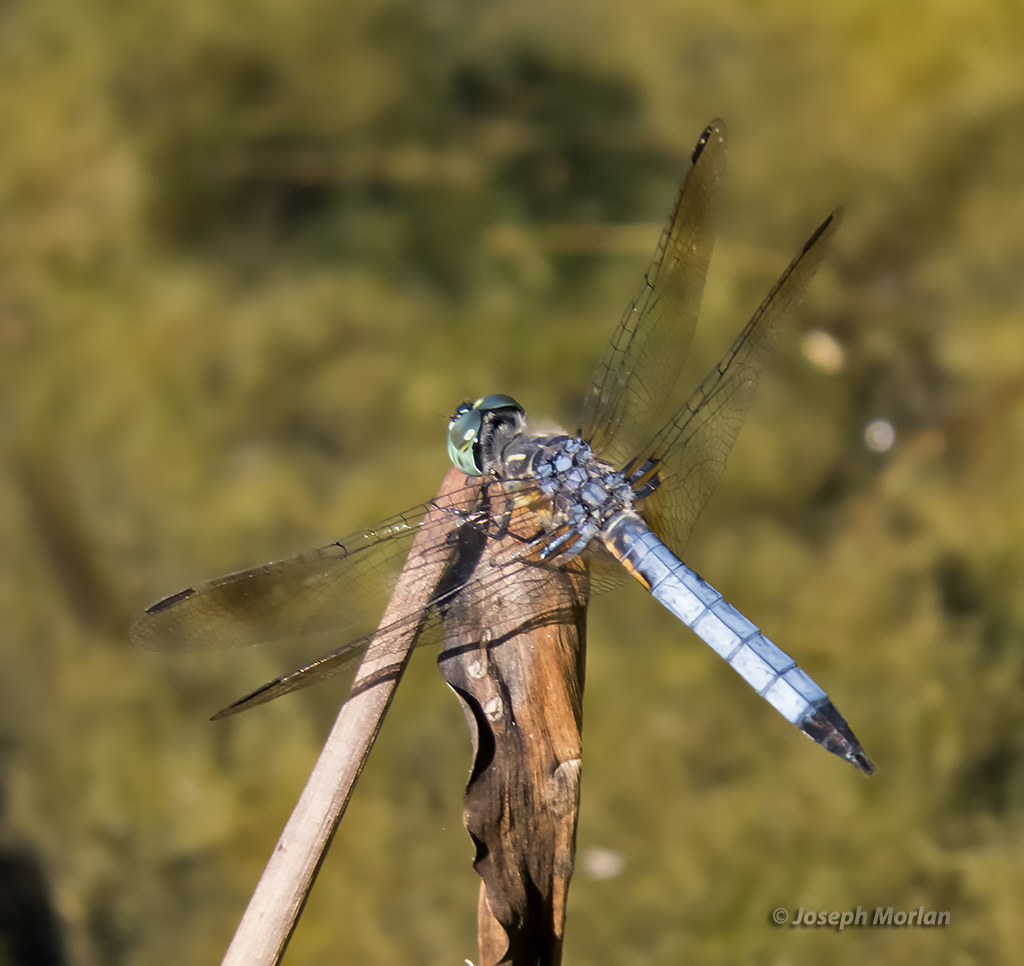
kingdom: Animalia
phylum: Arthropoda
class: Insecta
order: Odonata
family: Libellulidae
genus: Pachydiplax
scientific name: Pachydiplax longipennis
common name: Blue dasher
